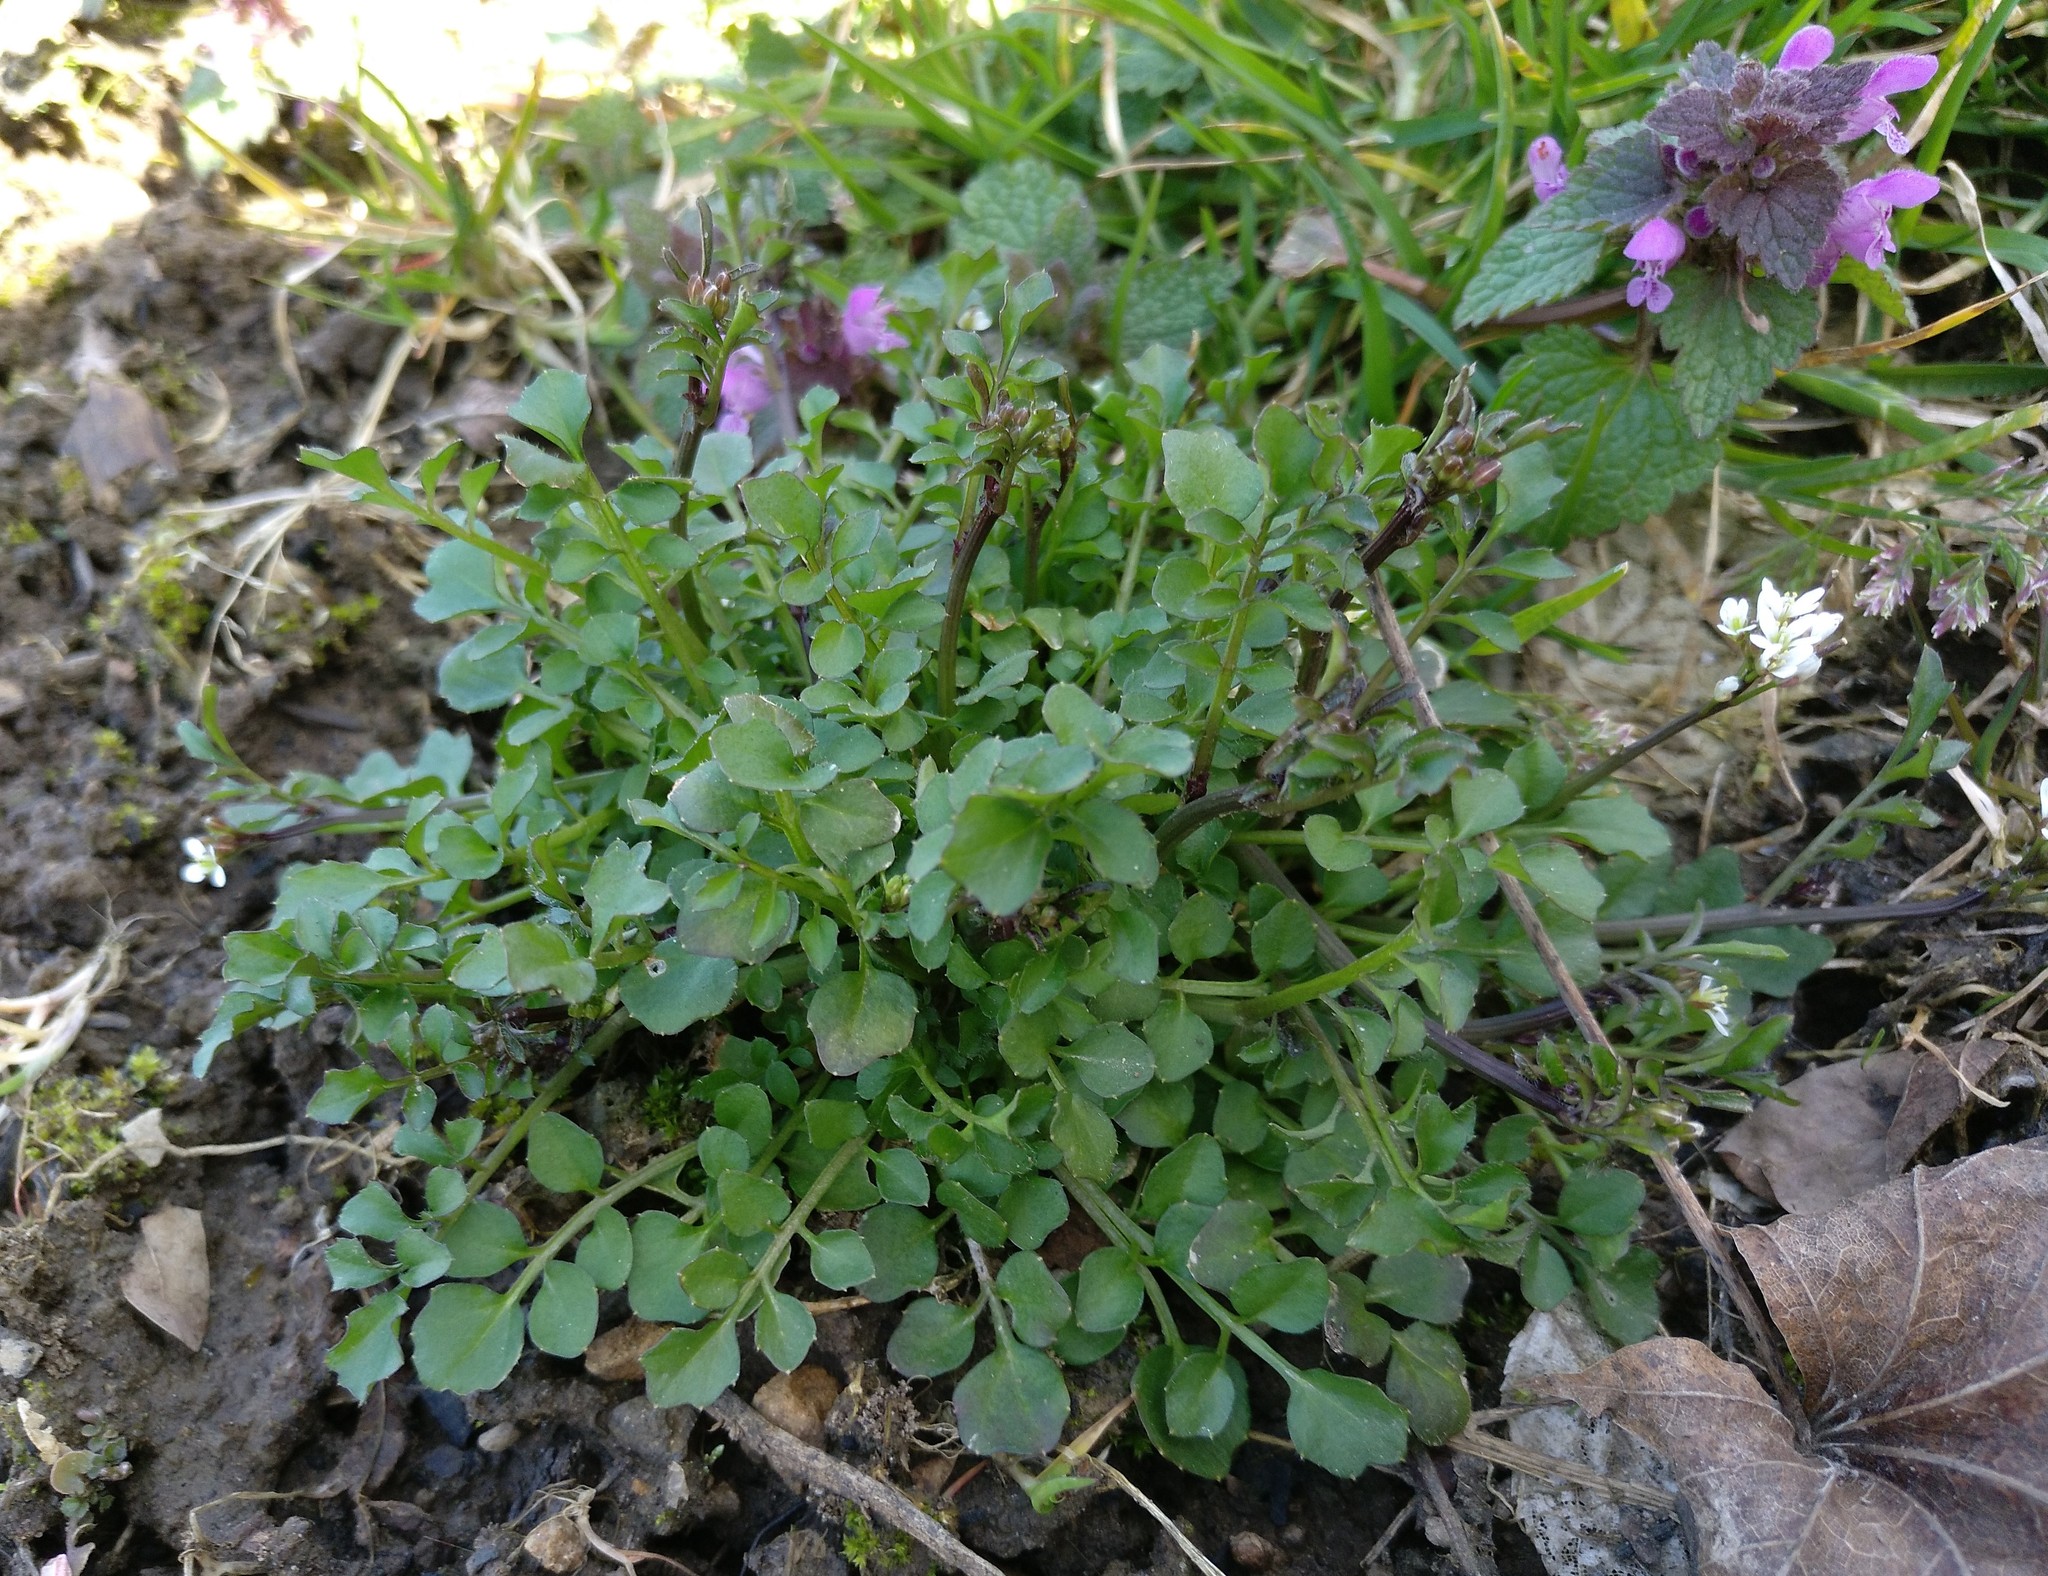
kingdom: Plantae
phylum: Tracheophyta
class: Magnoliopsida
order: Brassicales
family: Brassicaceae
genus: Cardamine
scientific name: Cardamine hirsuta
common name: Hairy bittercress
